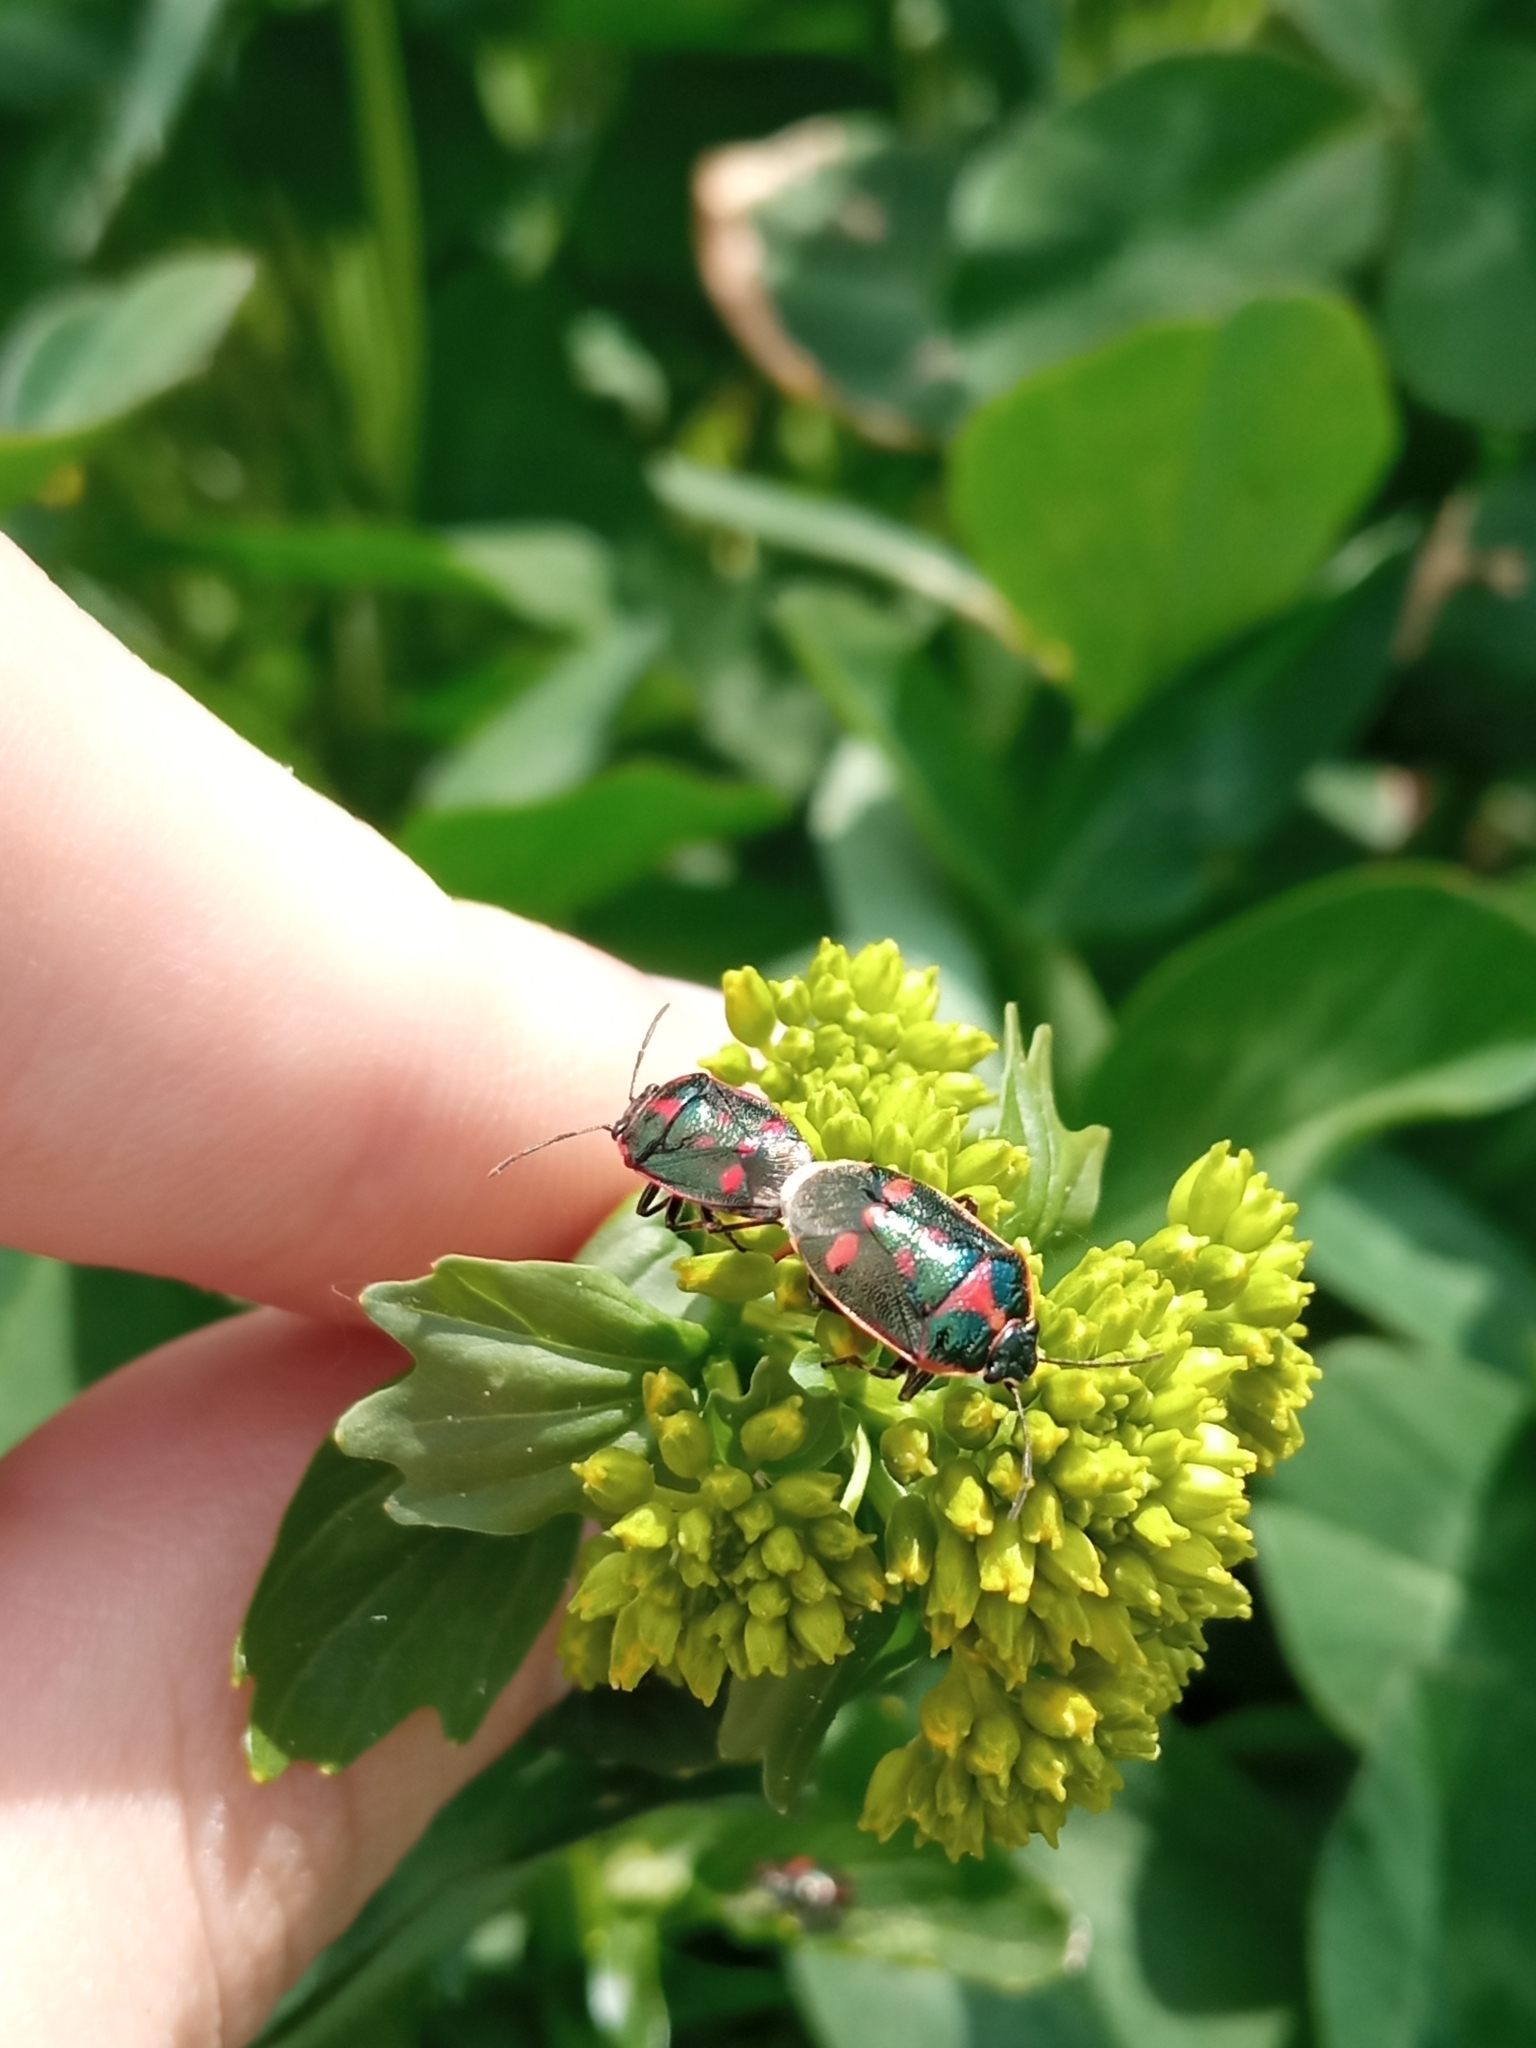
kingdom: Animalia
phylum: Arthropoda
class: Insecta
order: Hemiptera
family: Pentatomidae
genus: Eurydema
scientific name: Eurydema oleracea
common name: Cabbage bug
